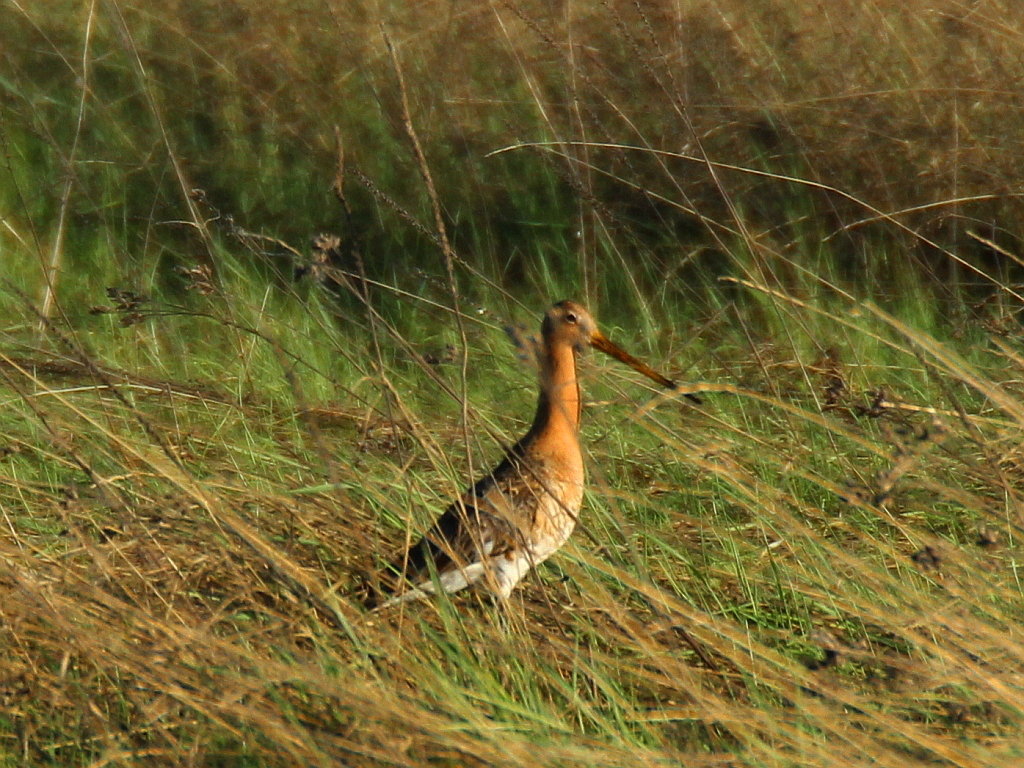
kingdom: Animalia
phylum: Chordata
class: Aves
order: Charadriiformes
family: Scolopacidae
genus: Limosa
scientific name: Limosa limosa
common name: Black-tailed godwit
